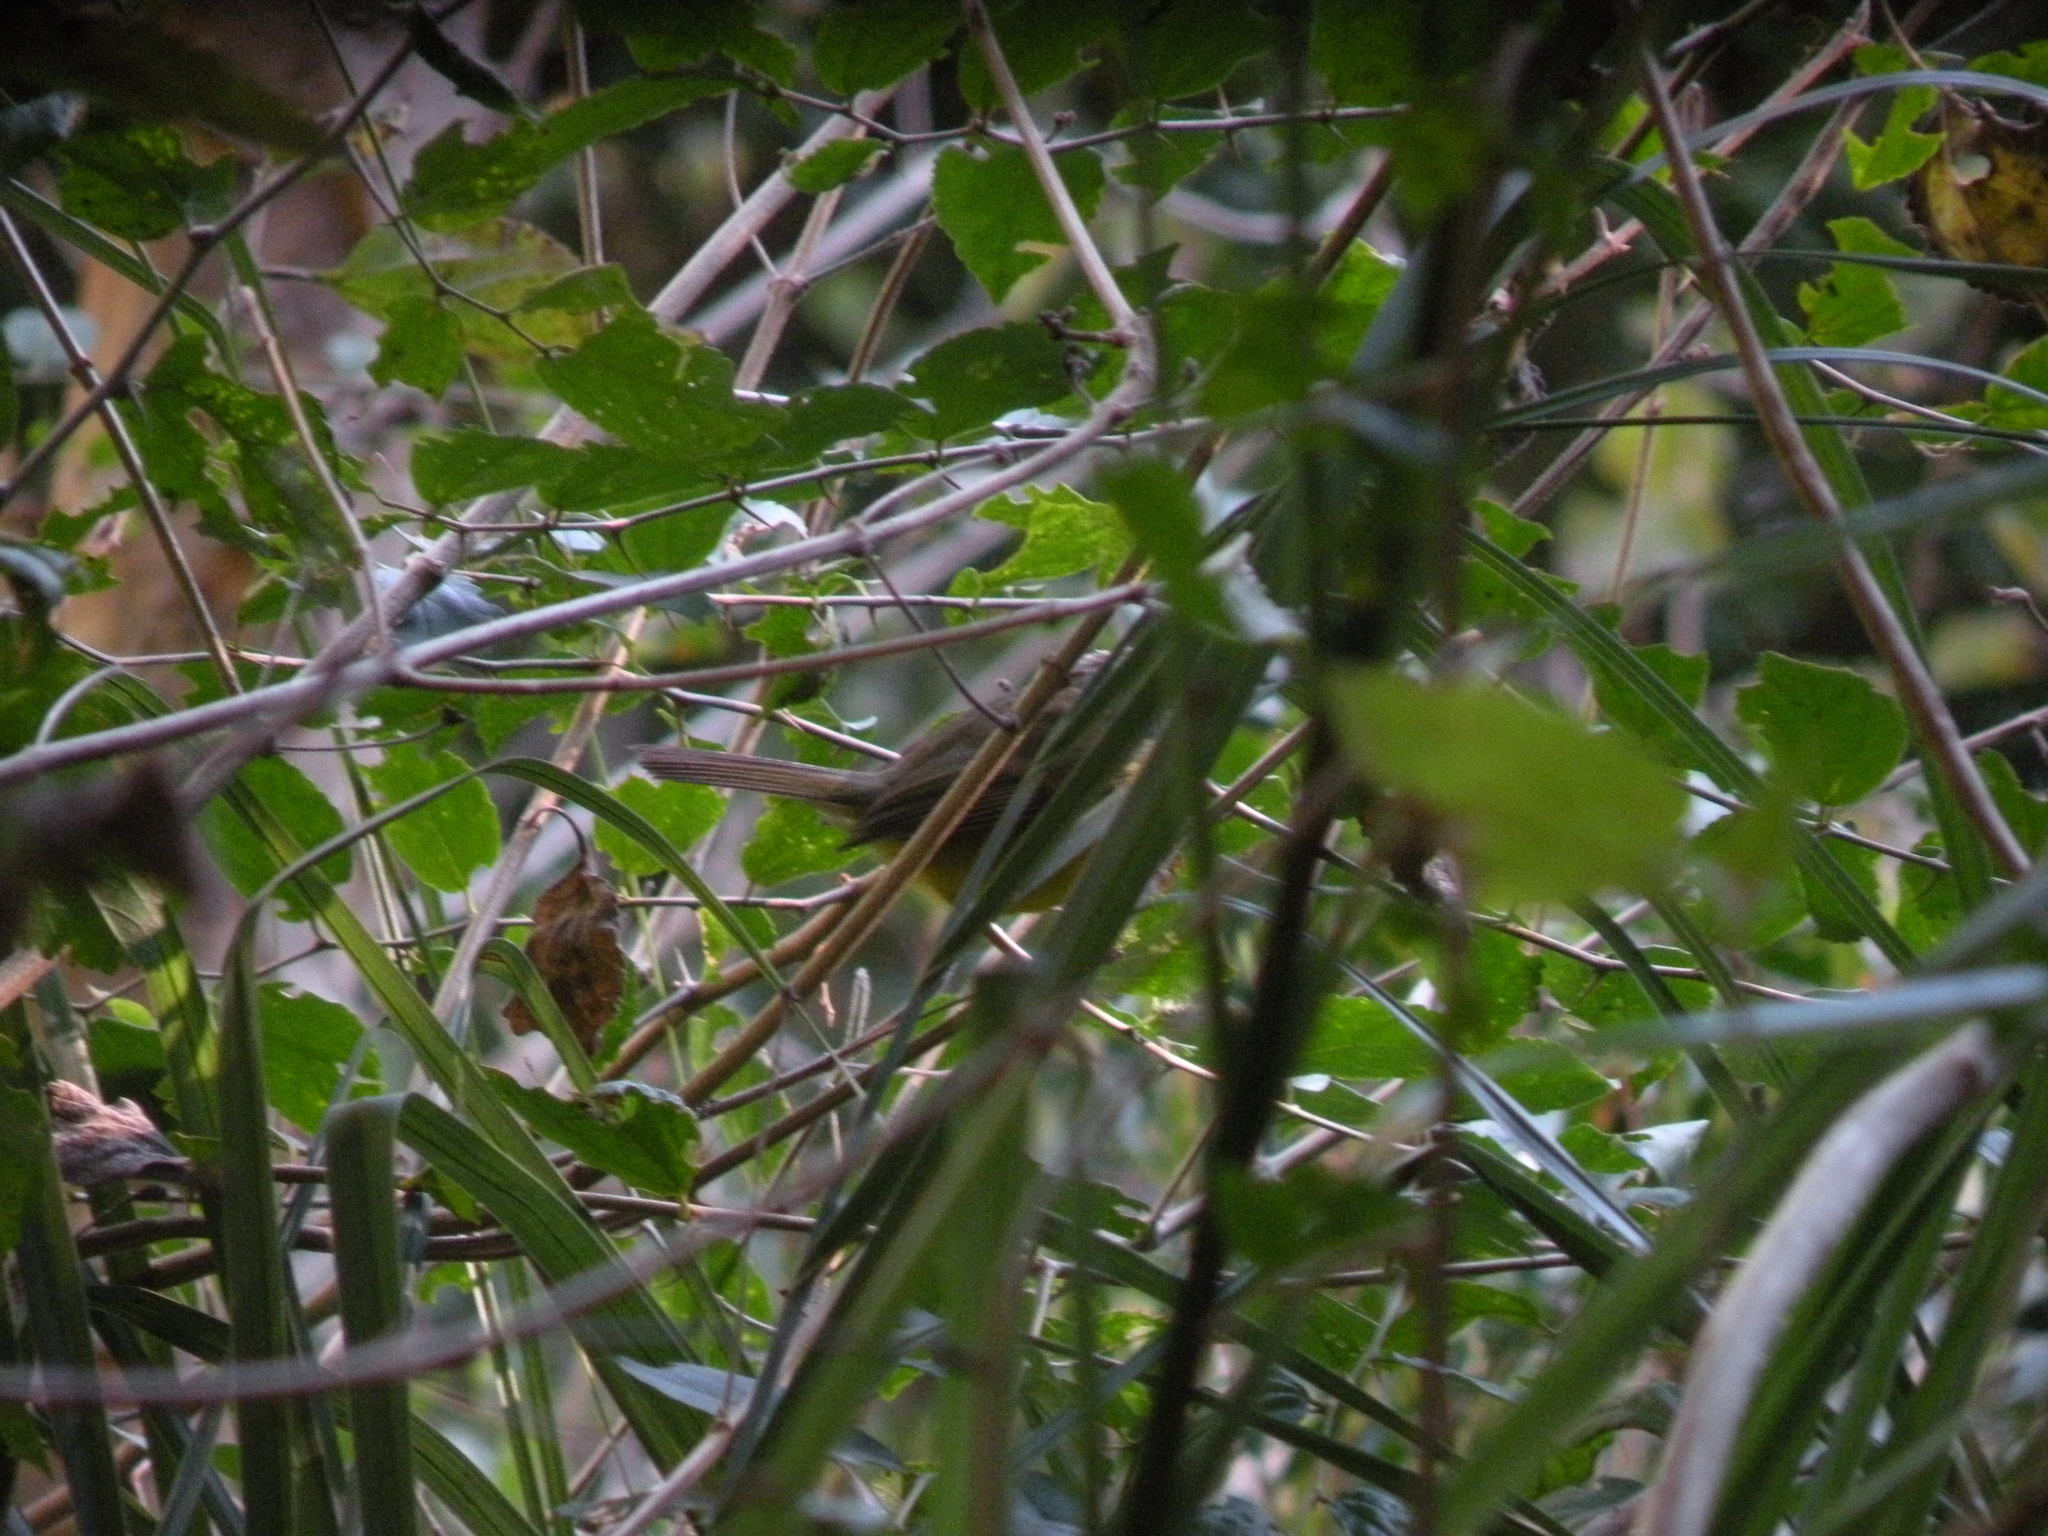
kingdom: Animalia
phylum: Chordata
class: Aves
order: Passeriformes
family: Parulidae
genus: Basileuterus
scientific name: Basileuterus culicivorus
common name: Golden-crowned warbler
